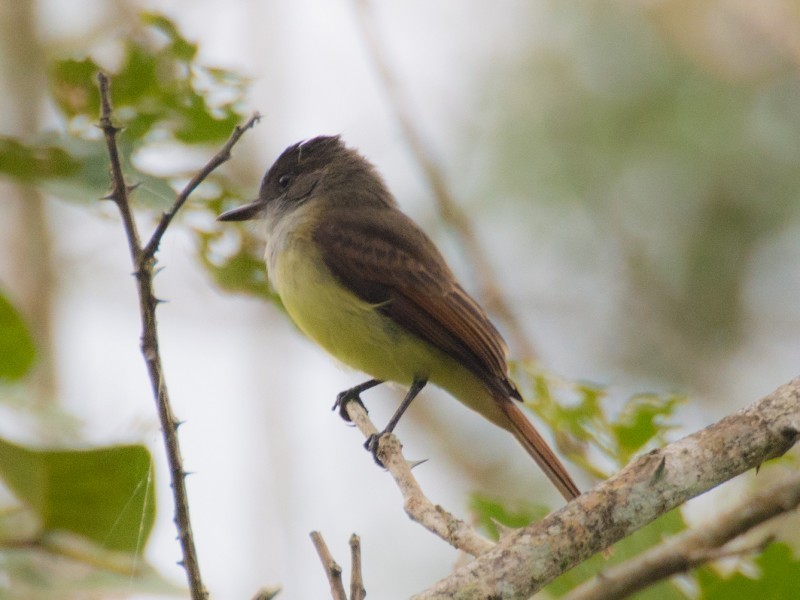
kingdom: Animalia
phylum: Chordata
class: Aves
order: Passeriformes
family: Tyrannidae
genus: Myiarchus
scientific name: Myiarchus tuberculifer
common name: Dusky-capped flycatcher
